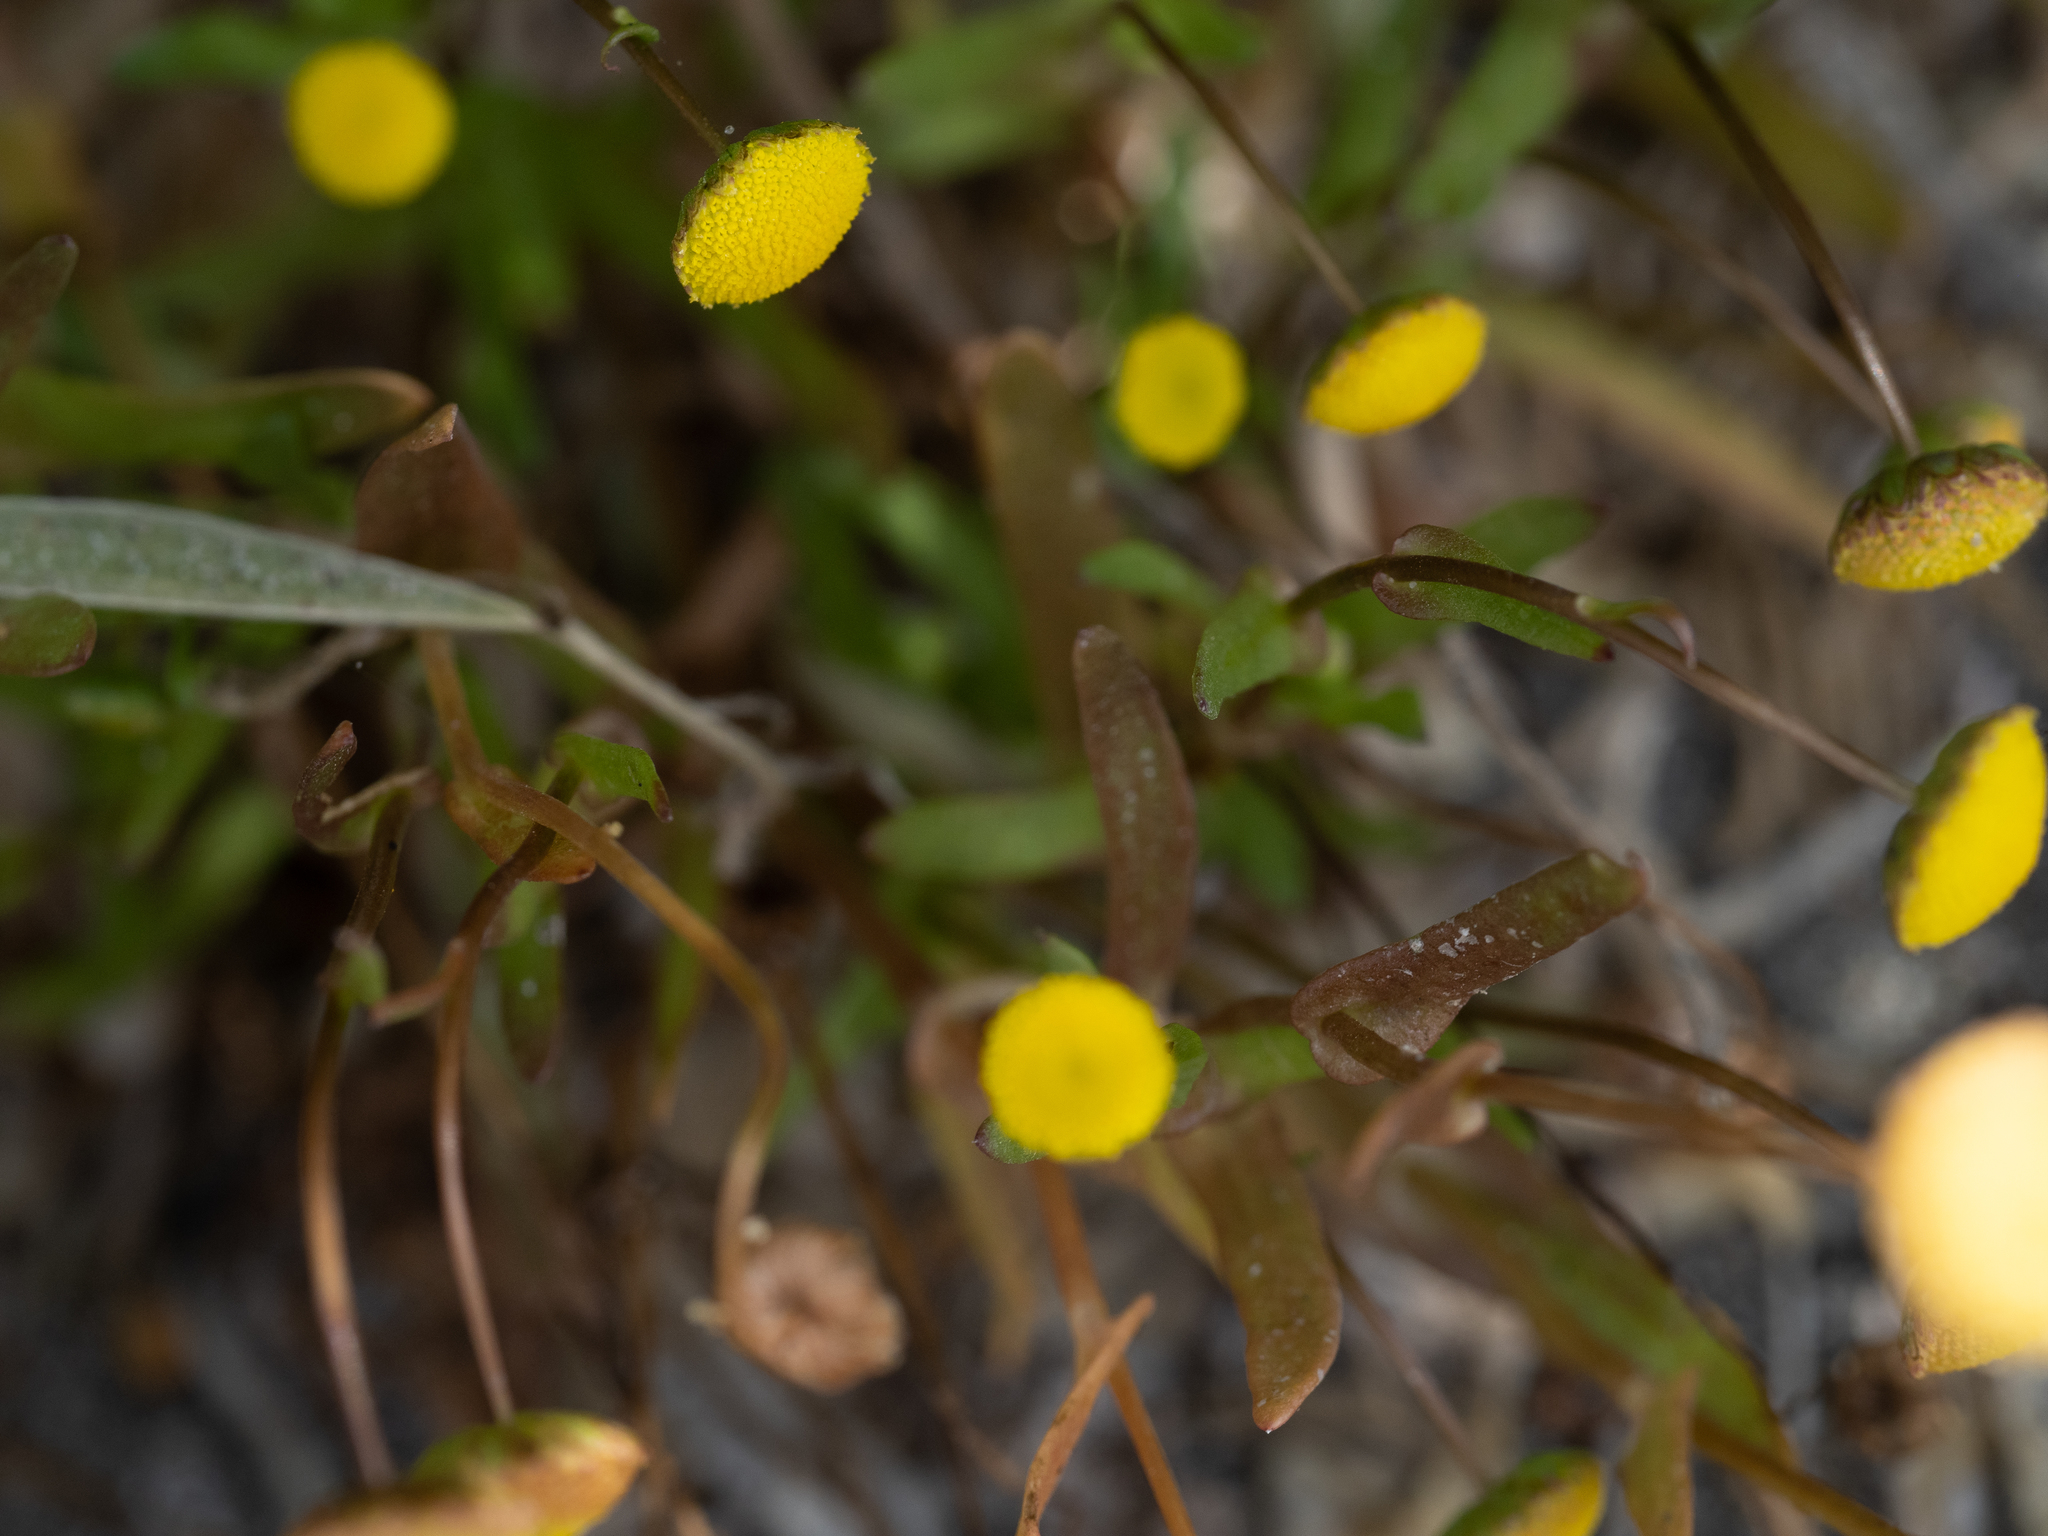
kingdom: Plantae
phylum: Tracheophyta
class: Magnoliopsida
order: Asterales
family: Asteraceae
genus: Cotula
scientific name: Cotula coronopifolia
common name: Buttonweed
